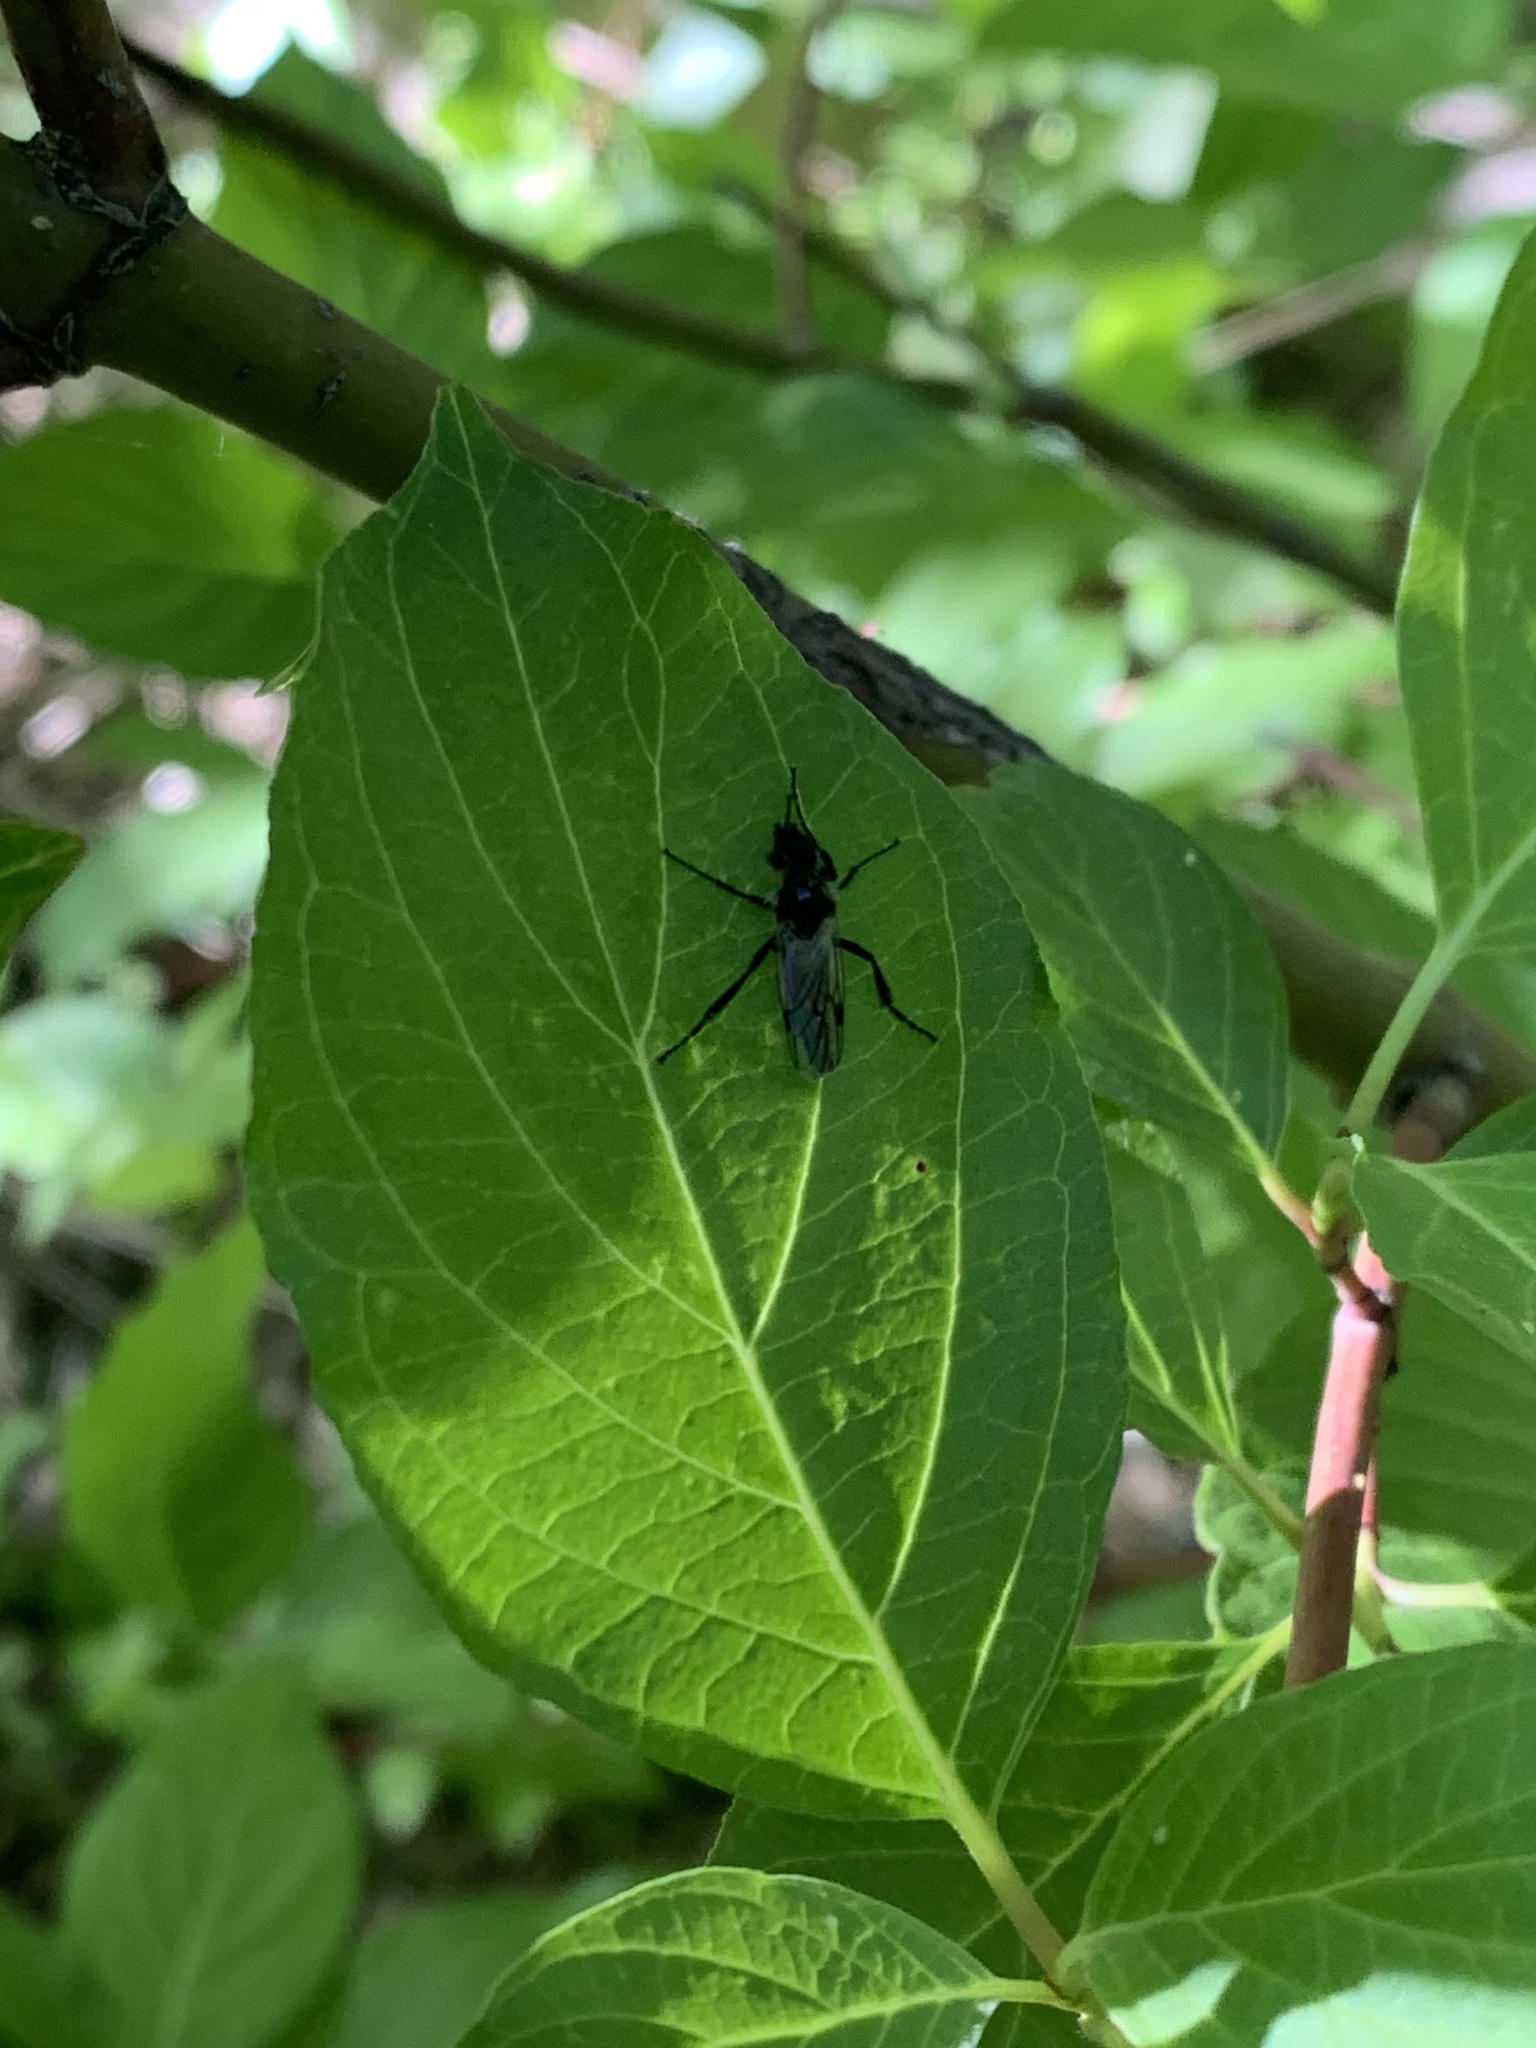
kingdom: Animalia
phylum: Arthropoda
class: Insecta
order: Diptera
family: Bibionidae
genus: Bibio
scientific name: Bibio albipennis
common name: White-winged march fly
